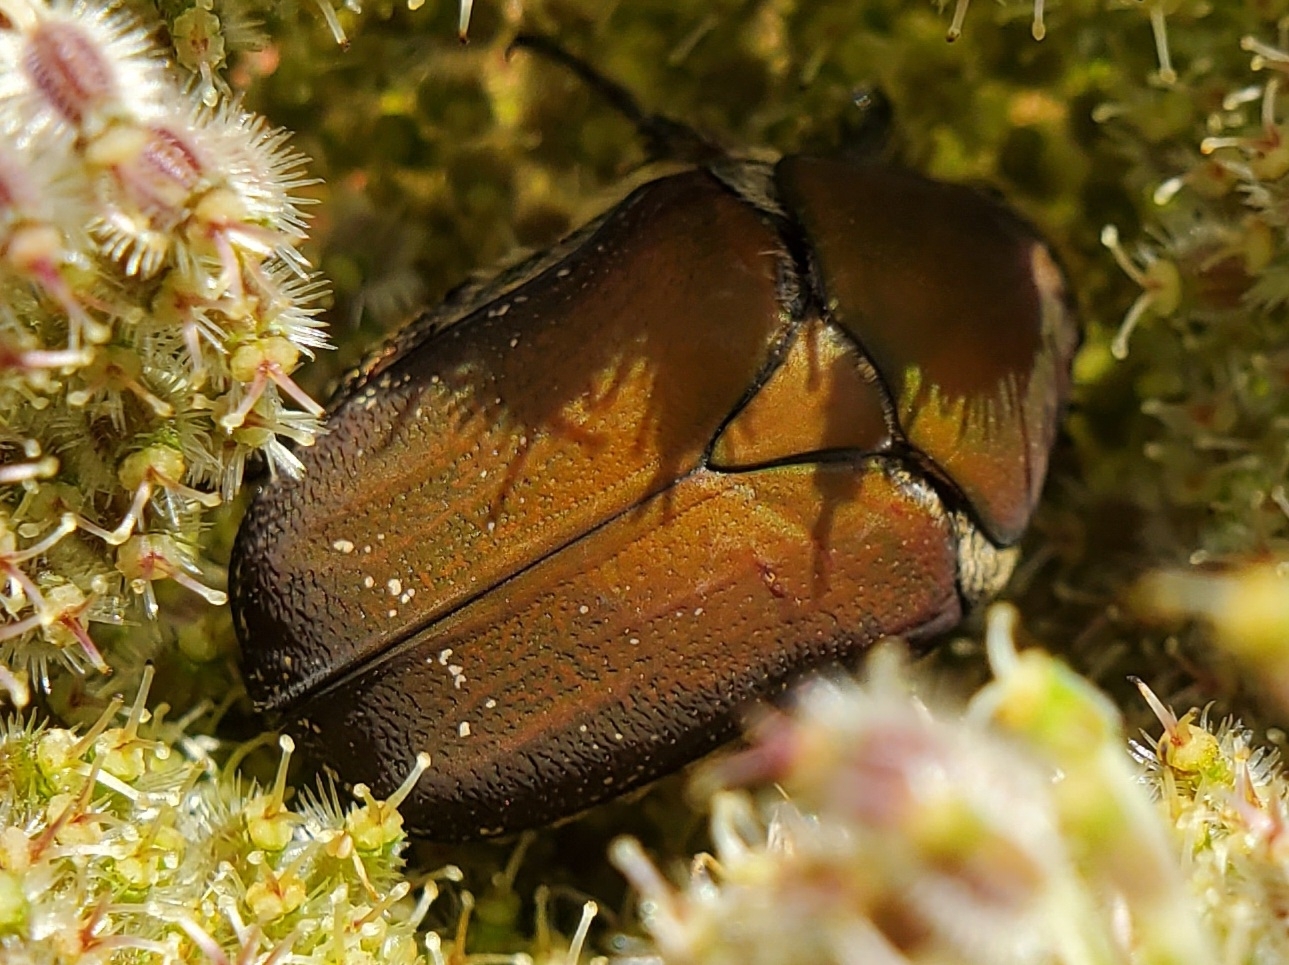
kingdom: Animalia
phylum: Arthropoda
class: Insecta
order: Coleoptera
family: Scarabaeidae
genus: Euphoria
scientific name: Euphoria herbacea
